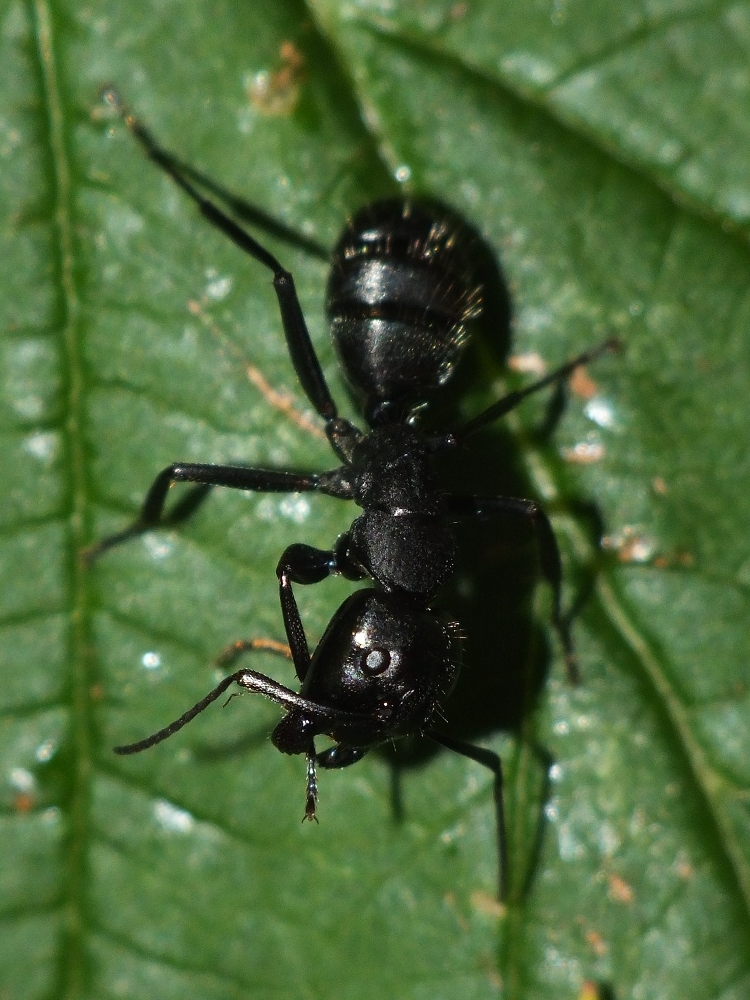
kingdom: Animalia
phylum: Arthropoda
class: Insecta
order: Hymenoptera
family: Formicidae
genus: Camponotus
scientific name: Camponotus vagus
